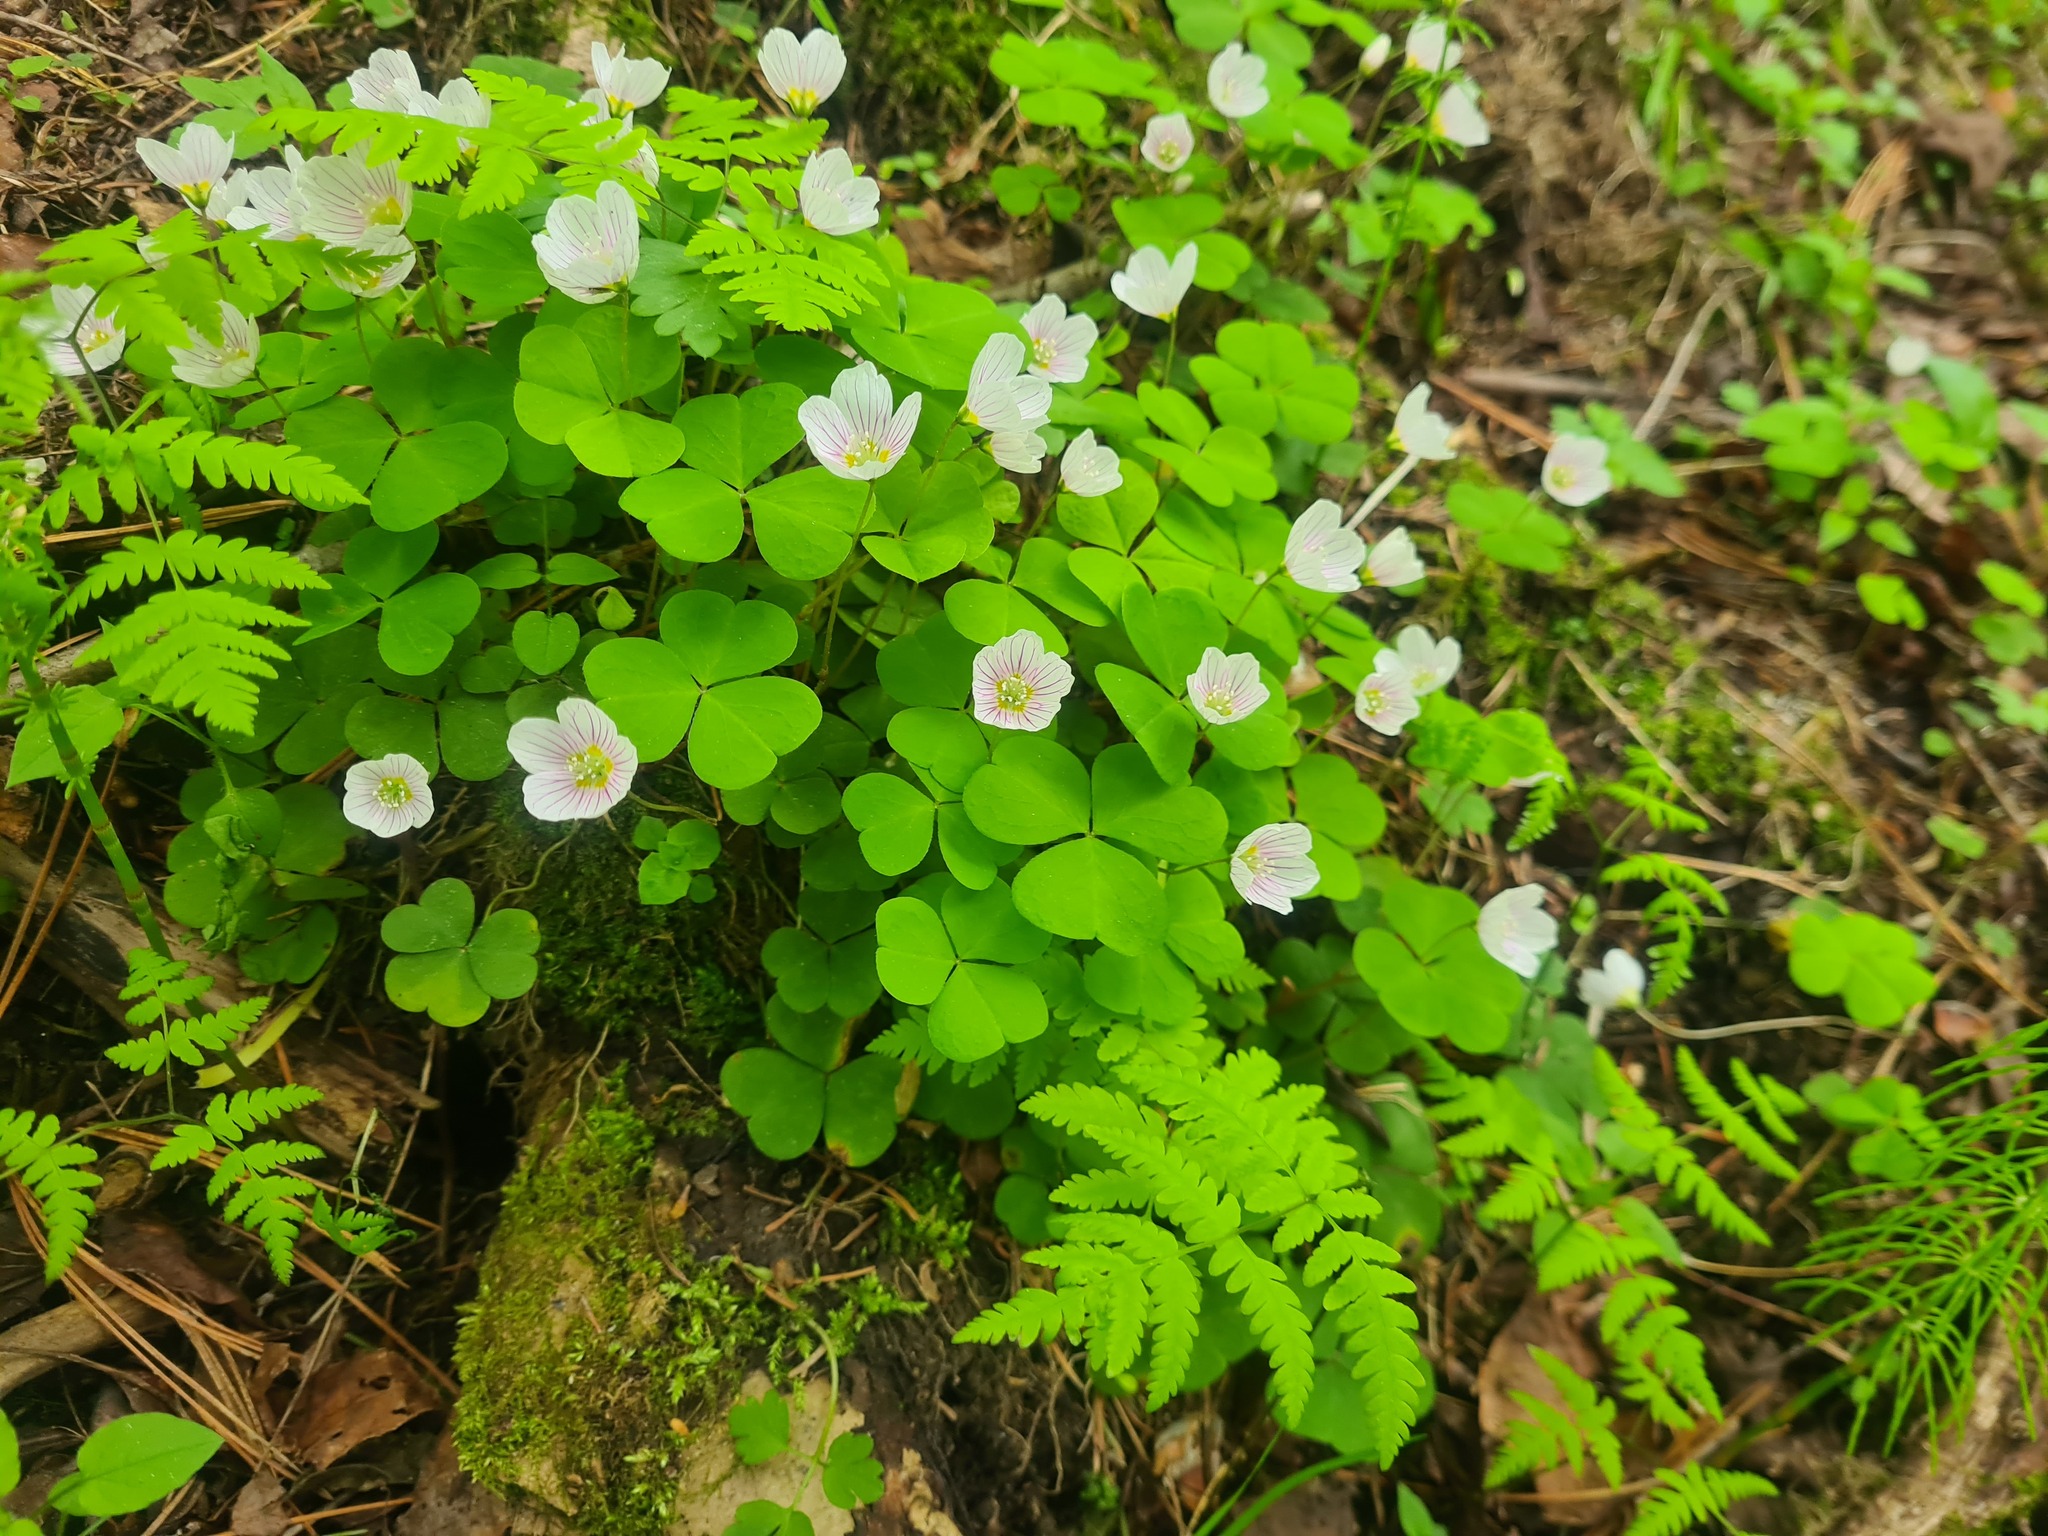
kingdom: Plantae
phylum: Tracheophyta
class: Magnoliopsida
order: Oxalidales
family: Oxalidaceae
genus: Oxalis
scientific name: Oxalis acetosella
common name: Wood-sorrel
